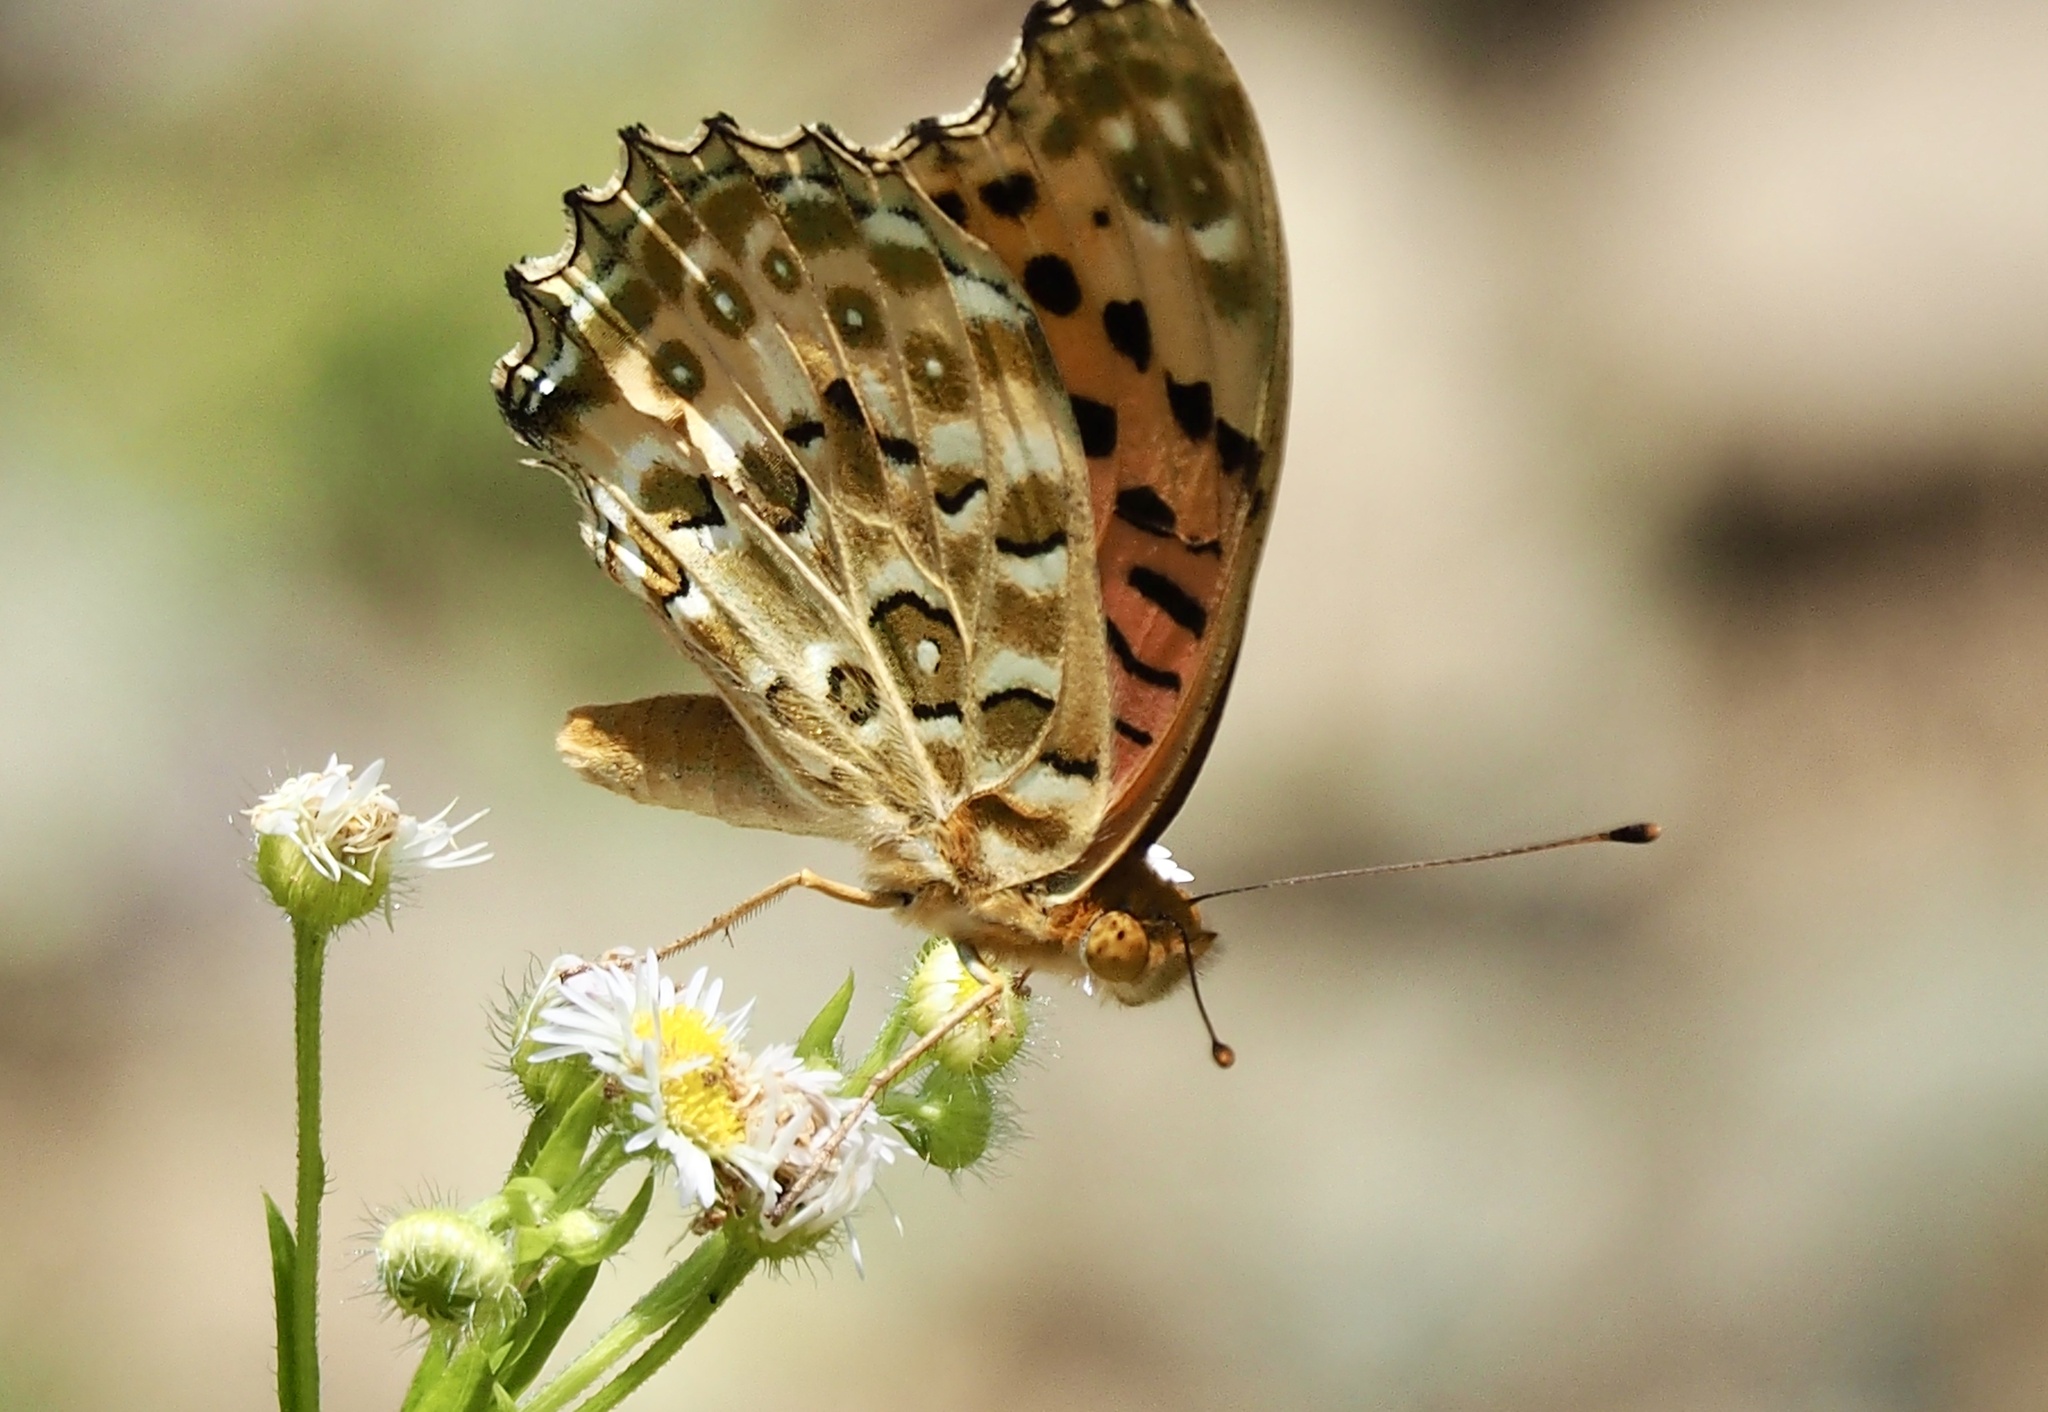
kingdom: Animalia
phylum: Arthropoda
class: Insecta
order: Lepidoptera
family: Nymphalidae
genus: Argynnis
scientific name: Argynnis hyperbius
